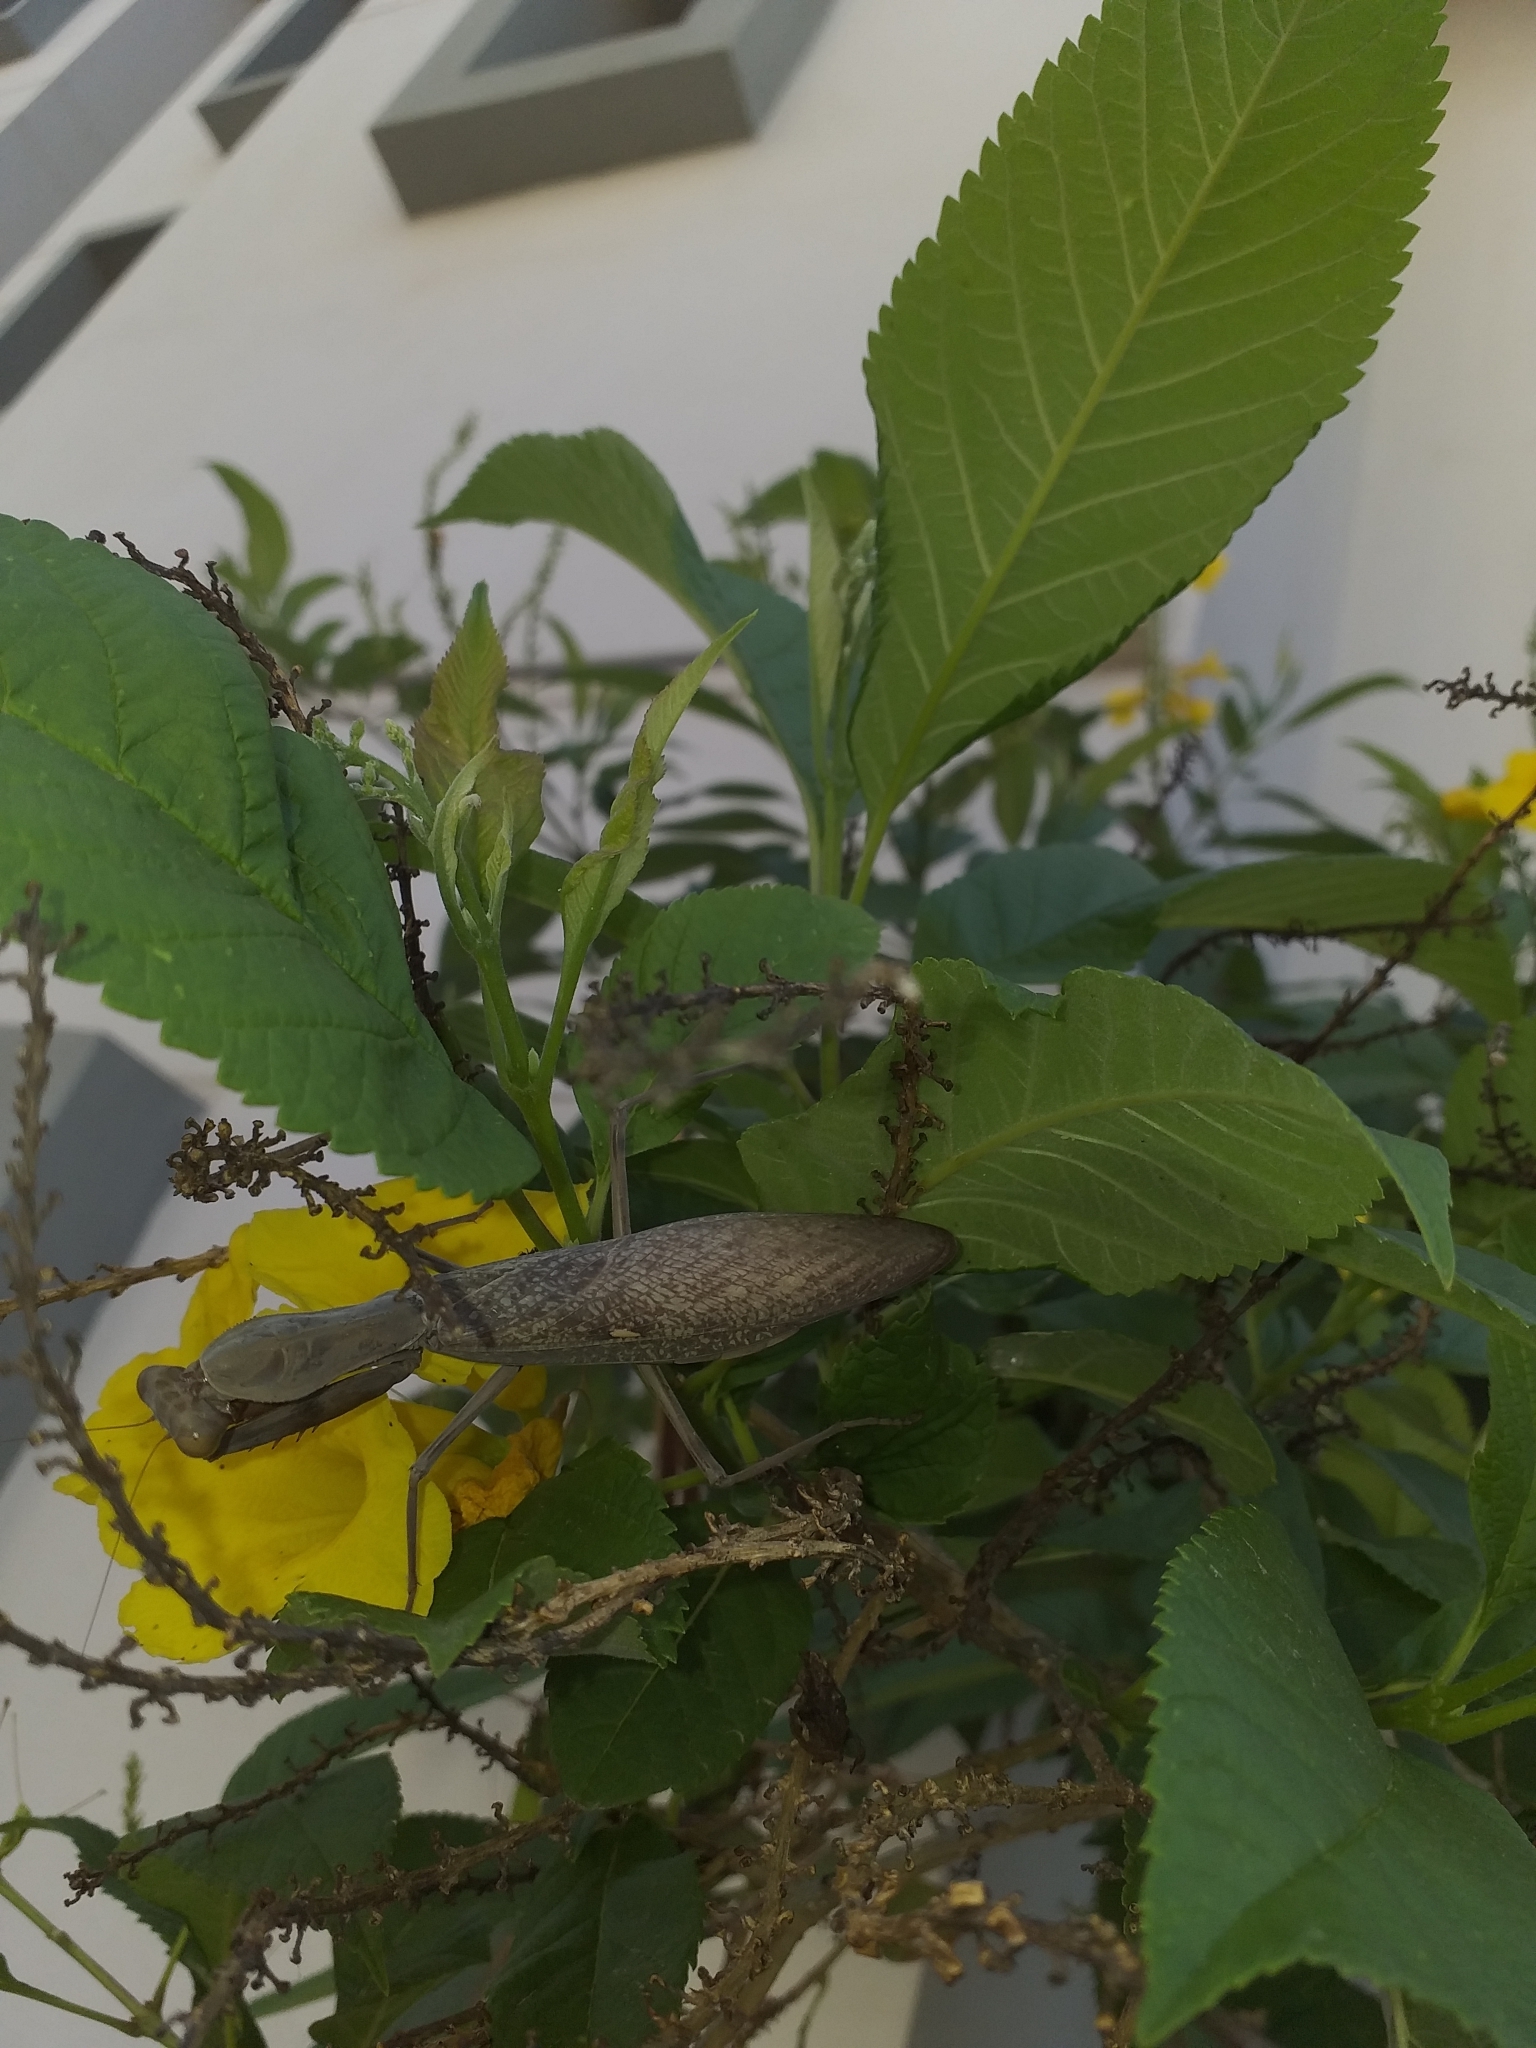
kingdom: Animalia
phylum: Arthropoda
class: Insecta
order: Mantodea
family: Mantidae
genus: Hierodula
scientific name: Hierodula tenuidentata
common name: Giant asian mantis
